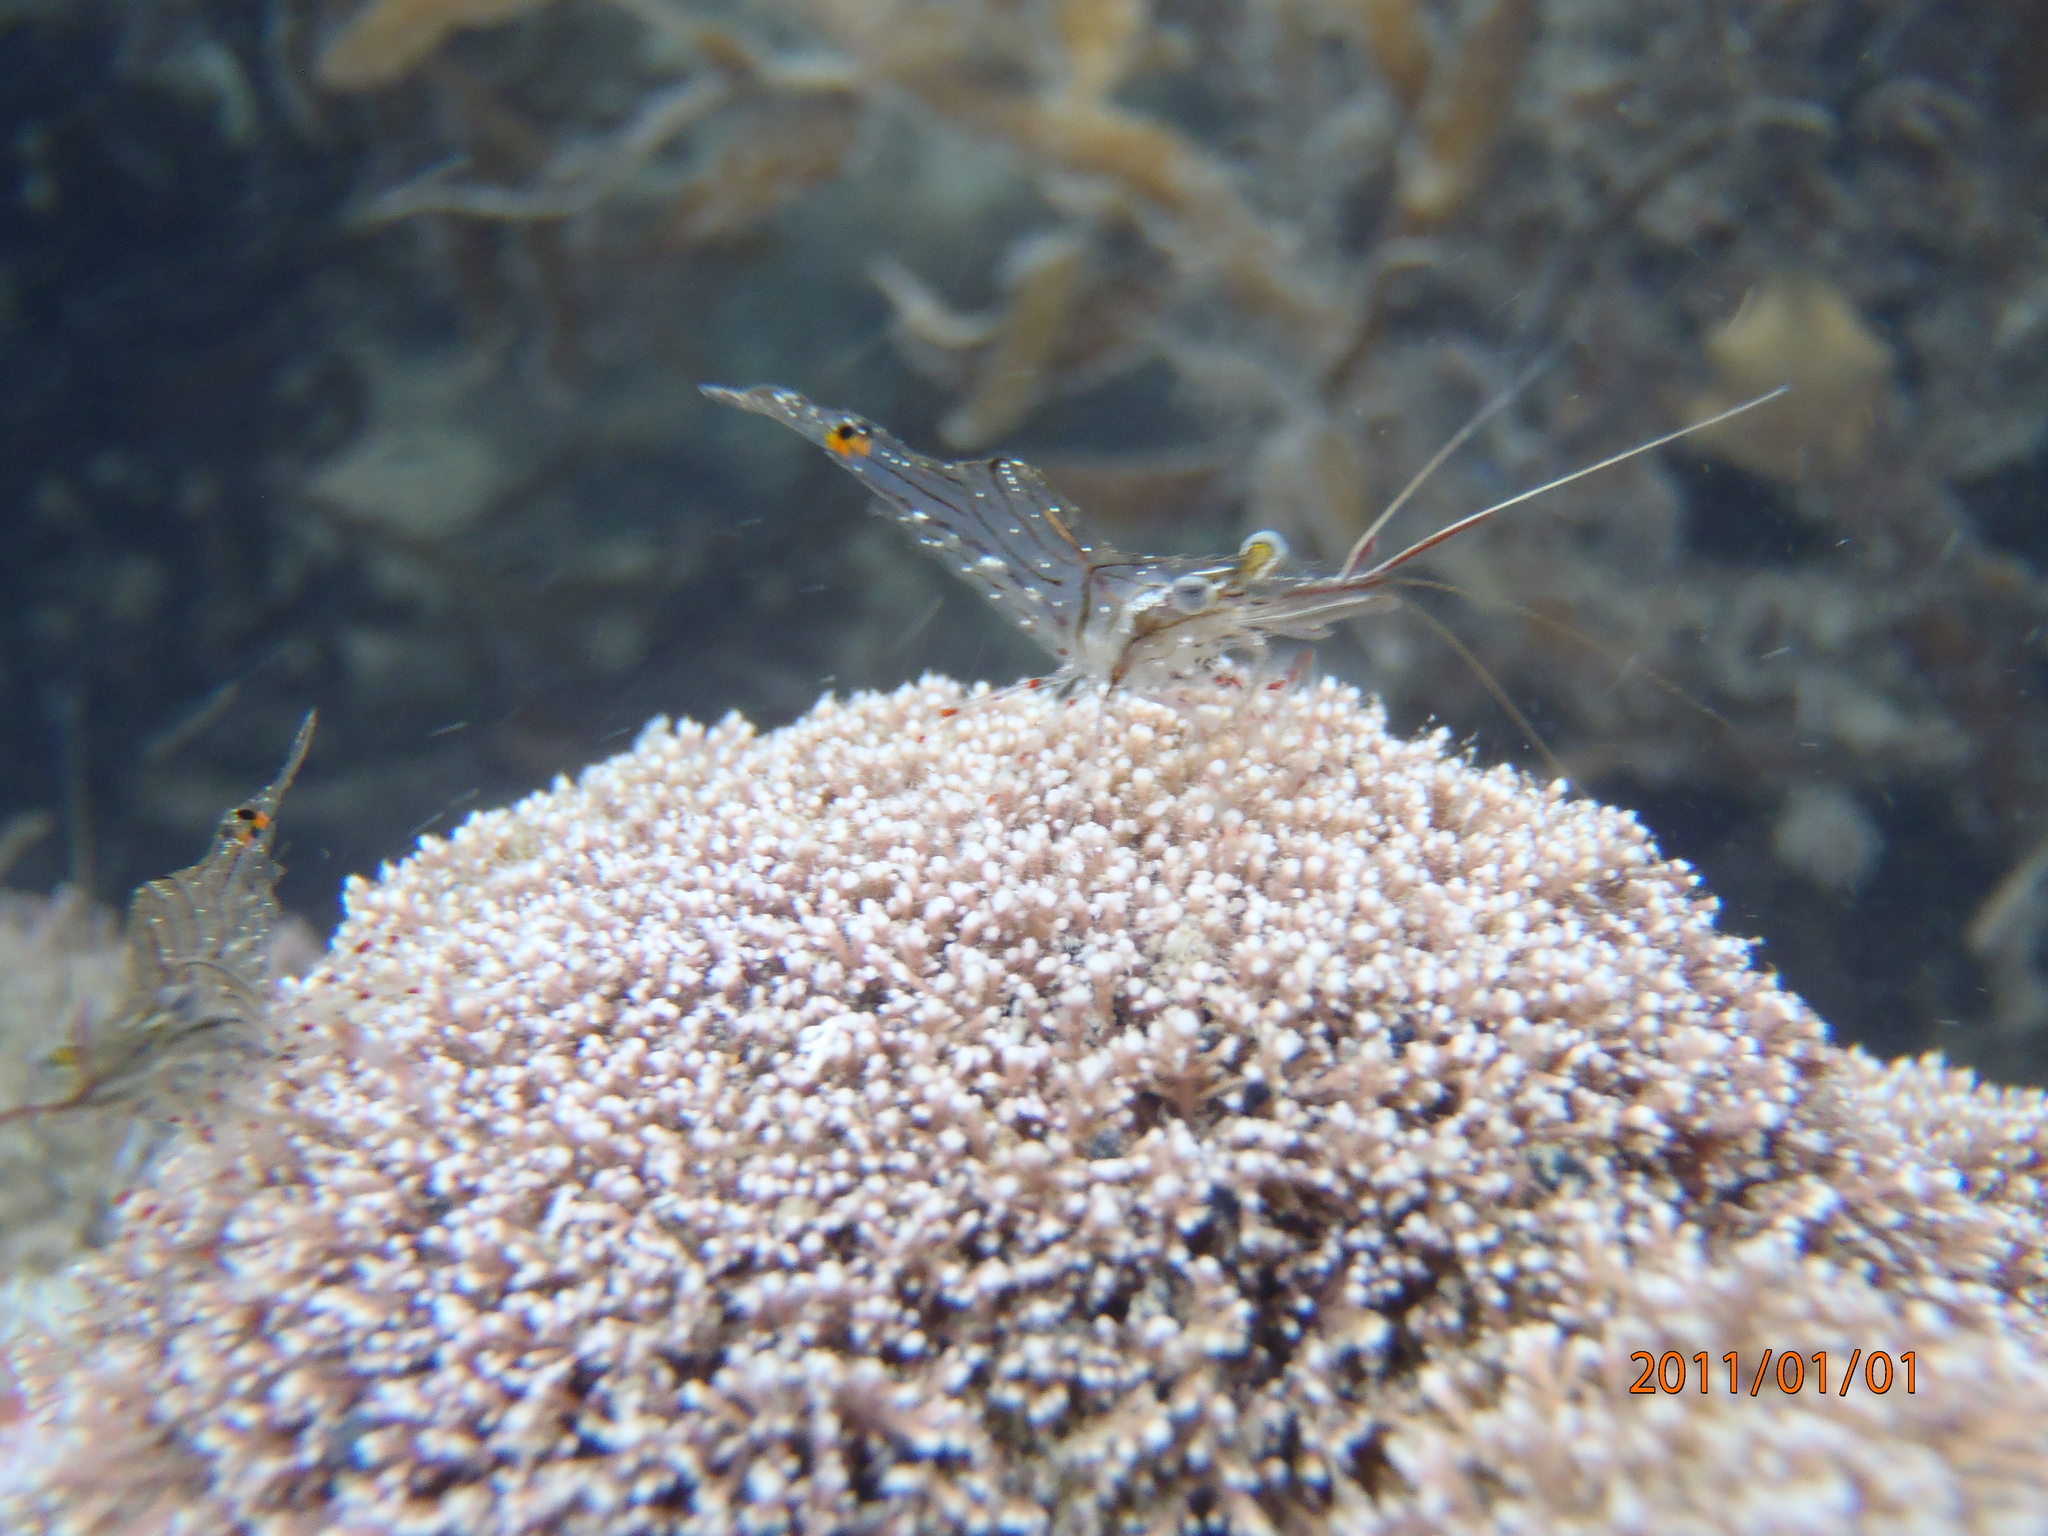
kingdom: Animalia
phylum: Arthropoda
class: Malacostraca
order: Decapoda
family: Palaemonidae
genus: Palaemon
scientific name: Palaemon affinis
